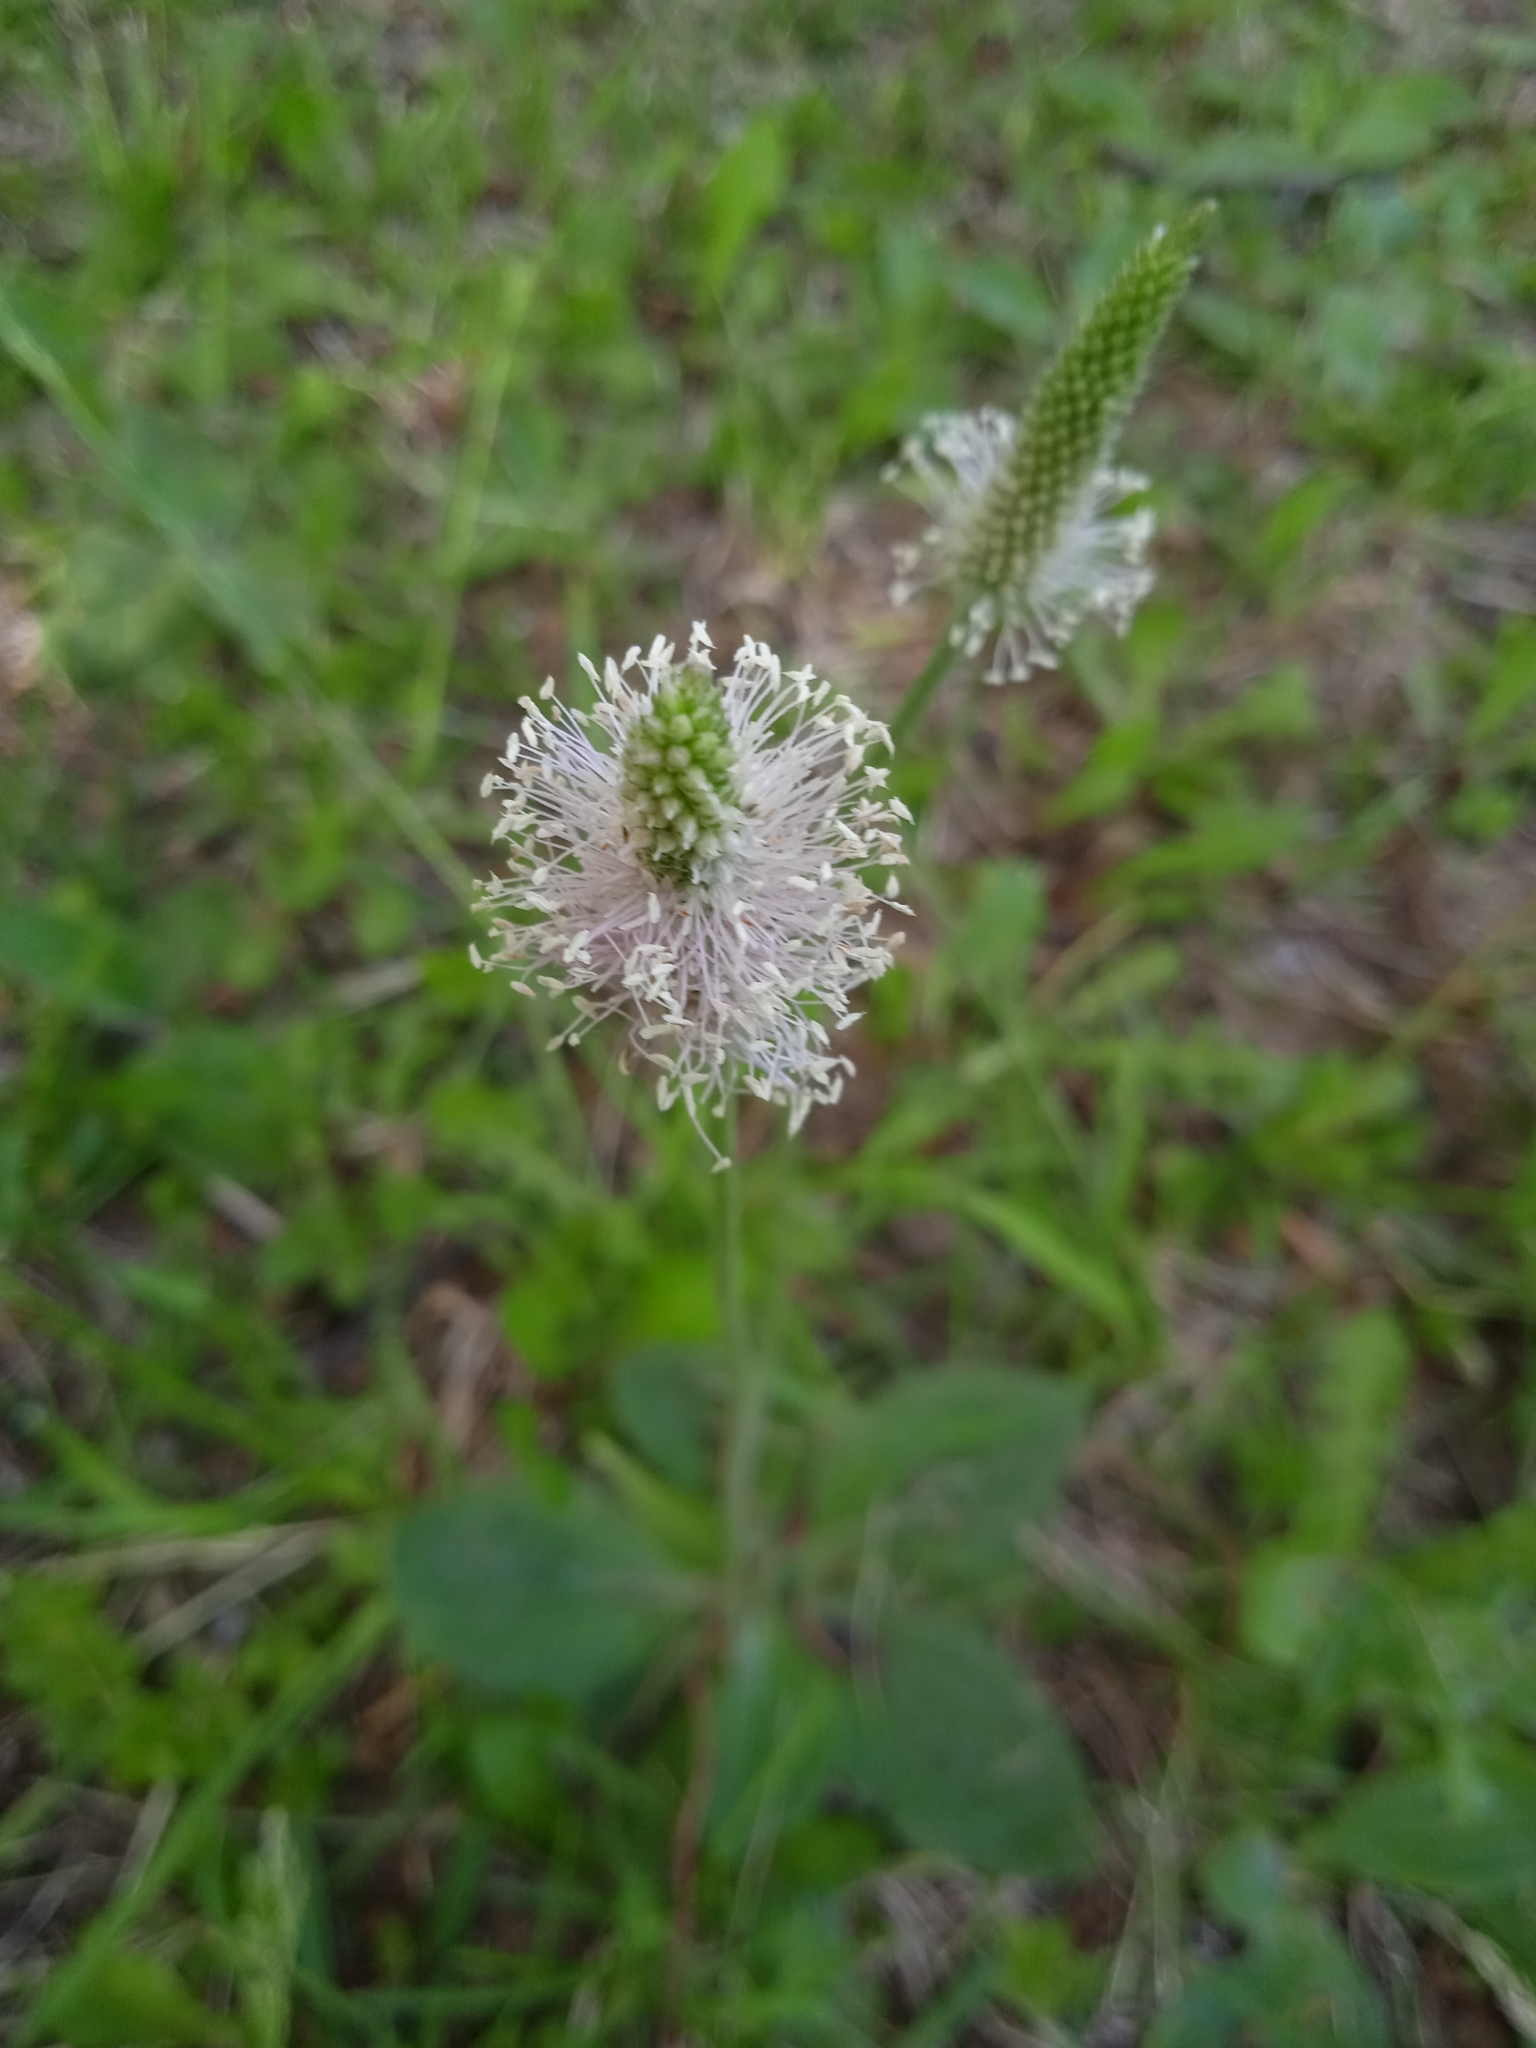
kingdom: Plantae
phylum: Tracheophyta
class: Magnoliopsida
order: Lamiales
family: Plantaginaceae
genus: Plantago
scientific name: Plantago media
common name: Hoary plantain
